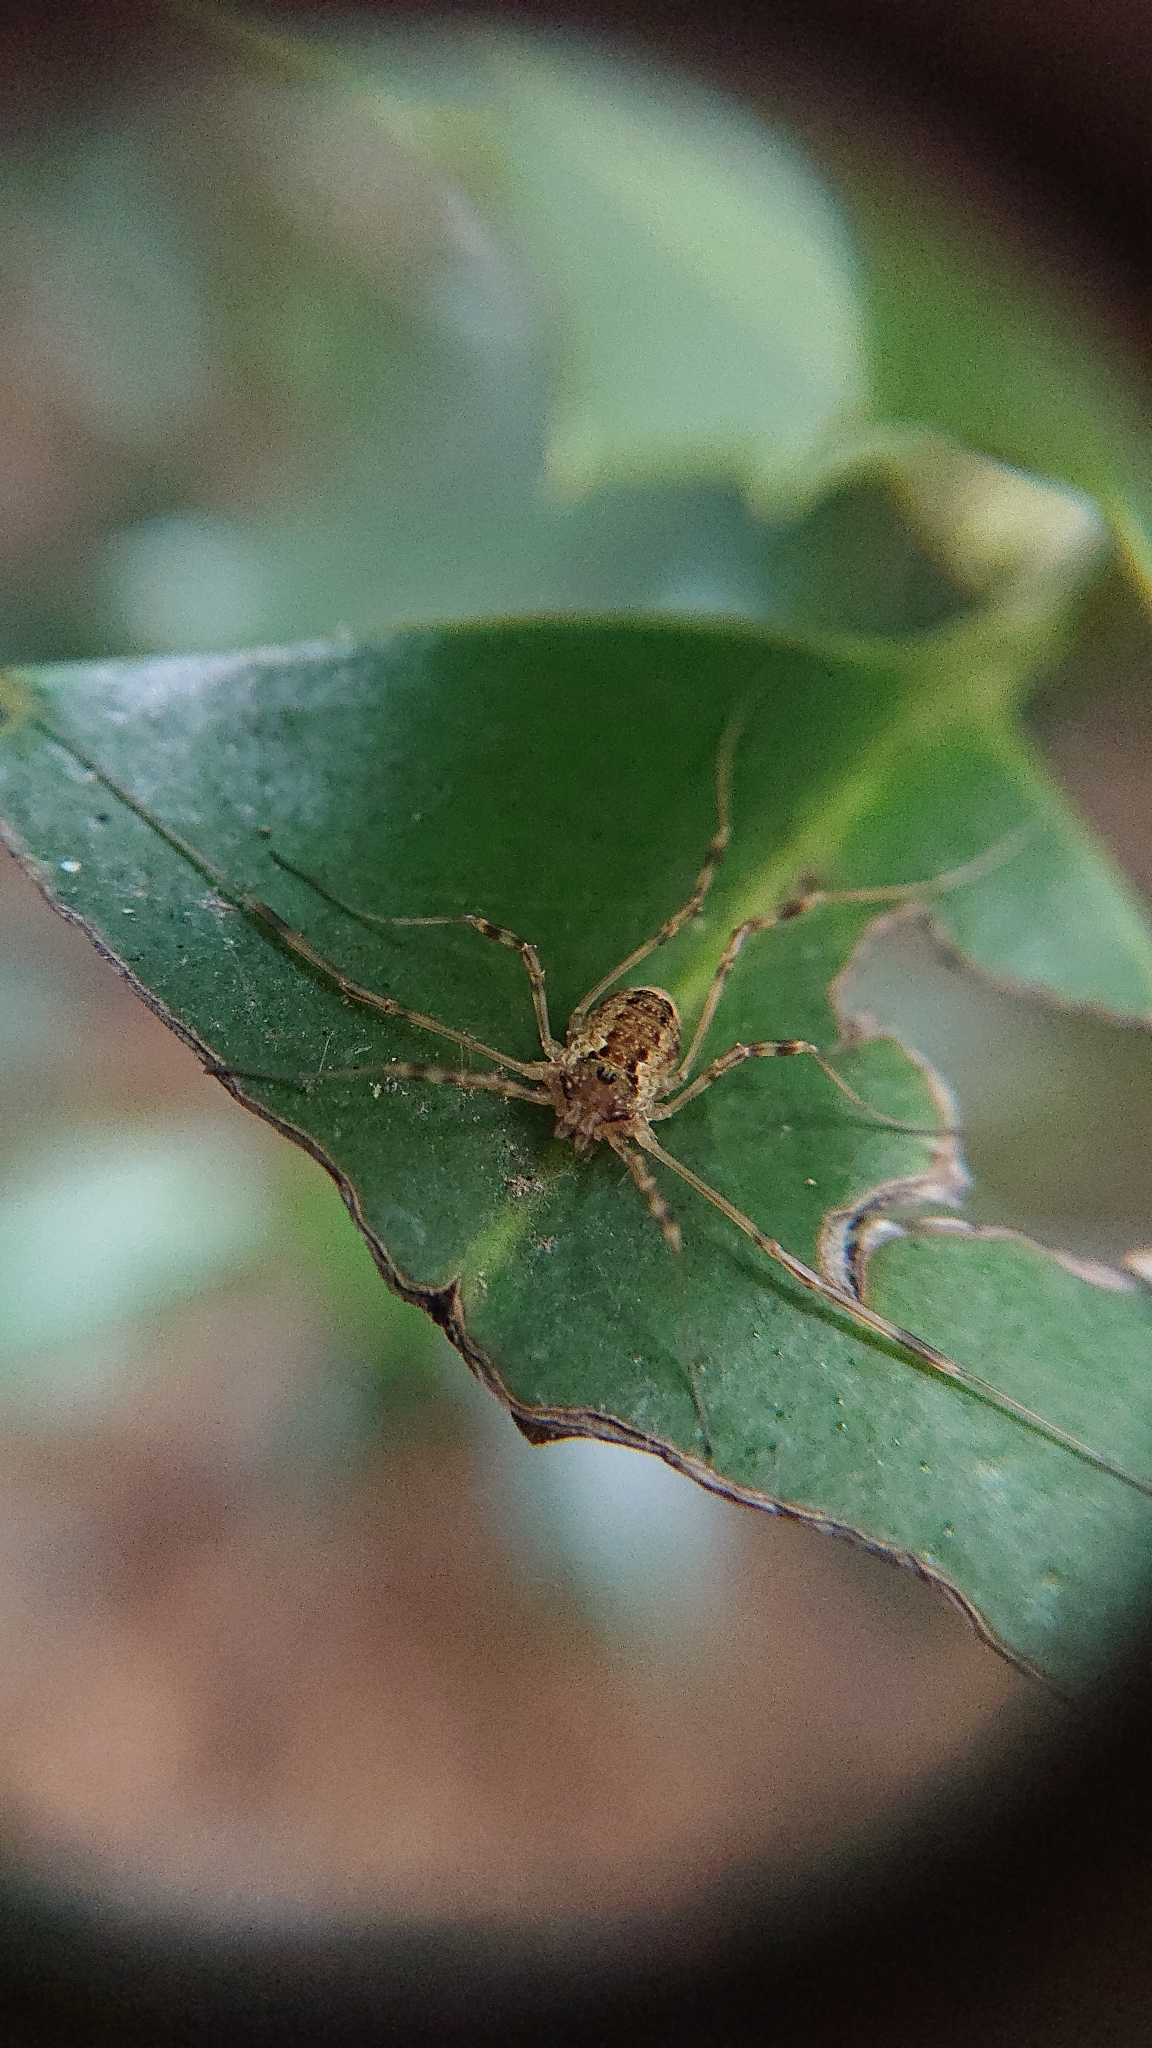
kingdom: Animalia
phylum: Arthropoda
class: Arachnida
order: Opiliones
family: Phalangiidae
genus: Oligolophus
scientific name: Oligolophus tridens
